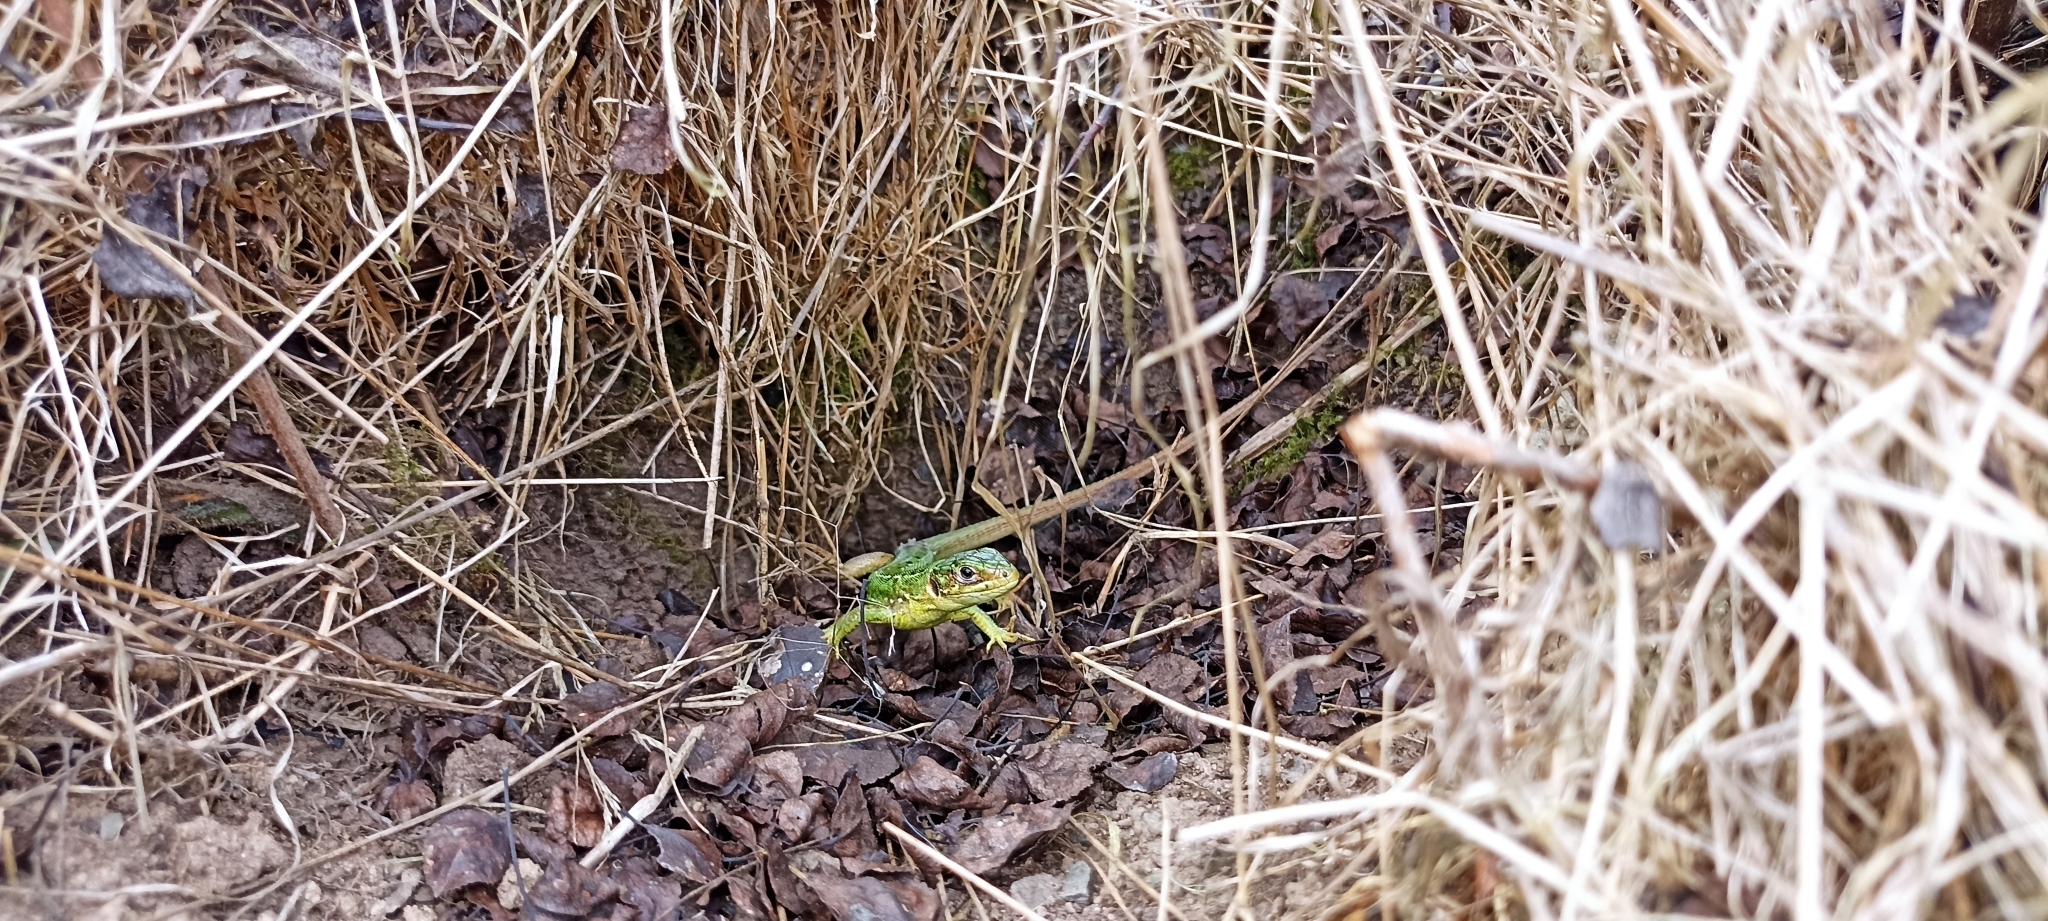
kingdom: Animalia
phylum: Chordata
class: Squamata
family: Lacertidae
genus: Lacerta
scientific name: Lacerta bilineata
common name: Western green lizard
